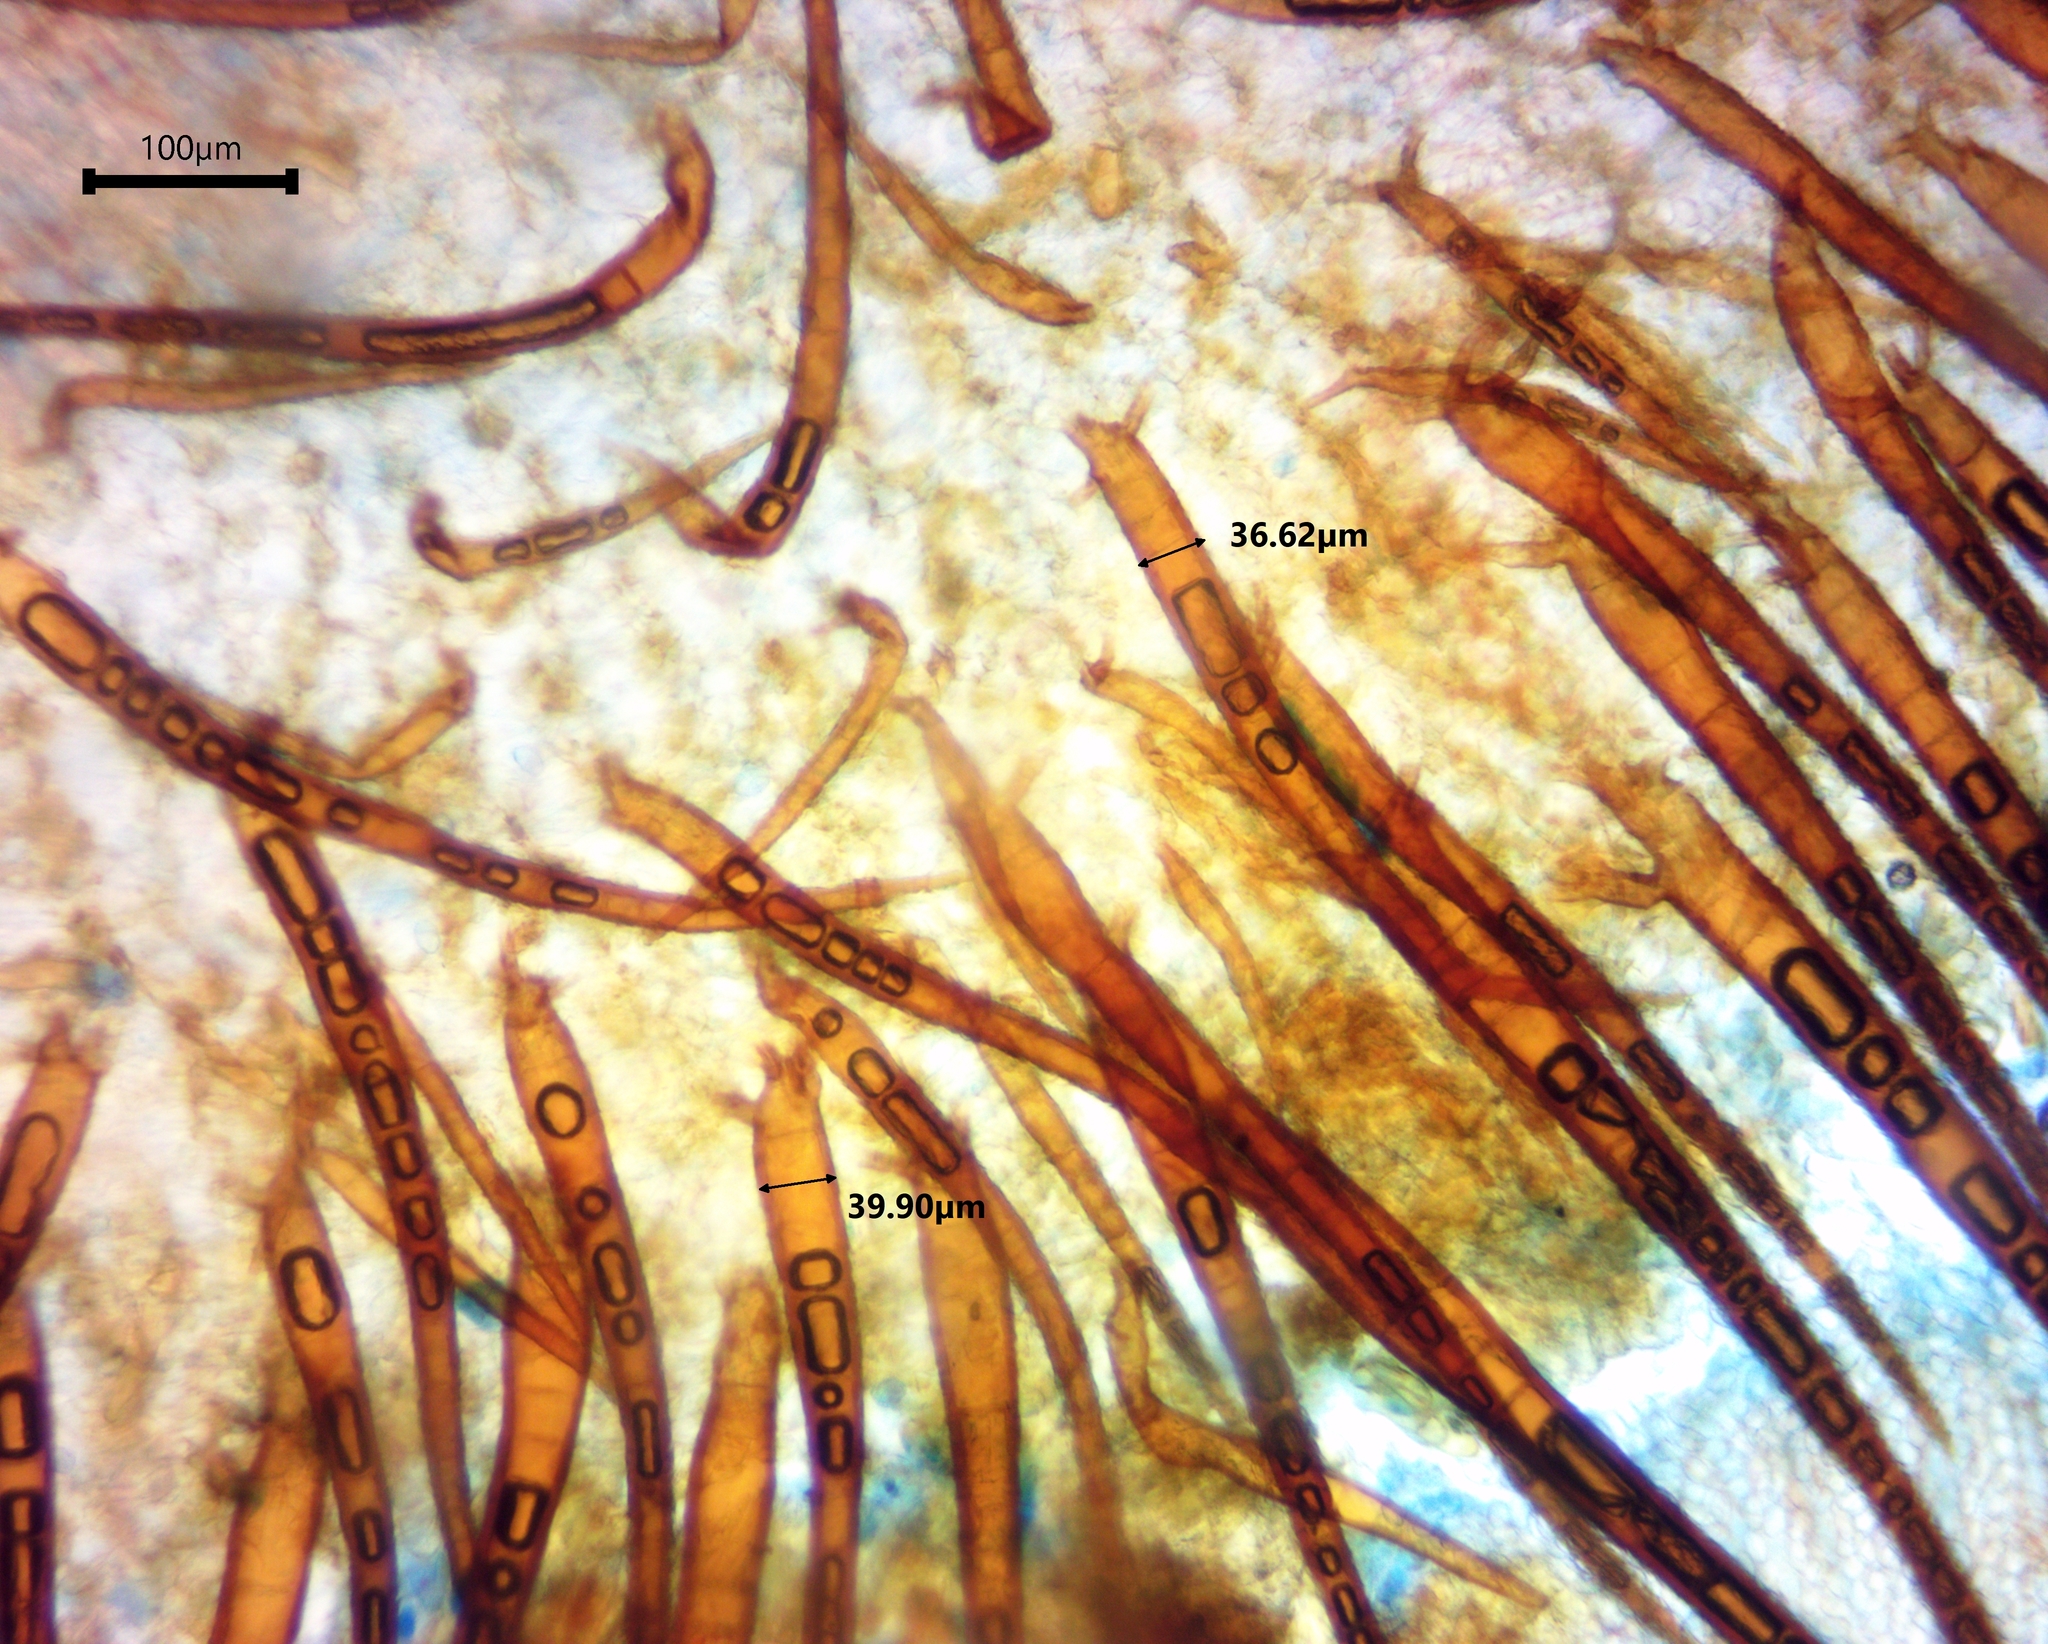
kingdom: Fungi
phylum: Ascomycota
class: Pezizomycetes
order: Pezizales
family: Pyronemataceae
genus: Scutellinia
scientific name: Scutellinia crinita
